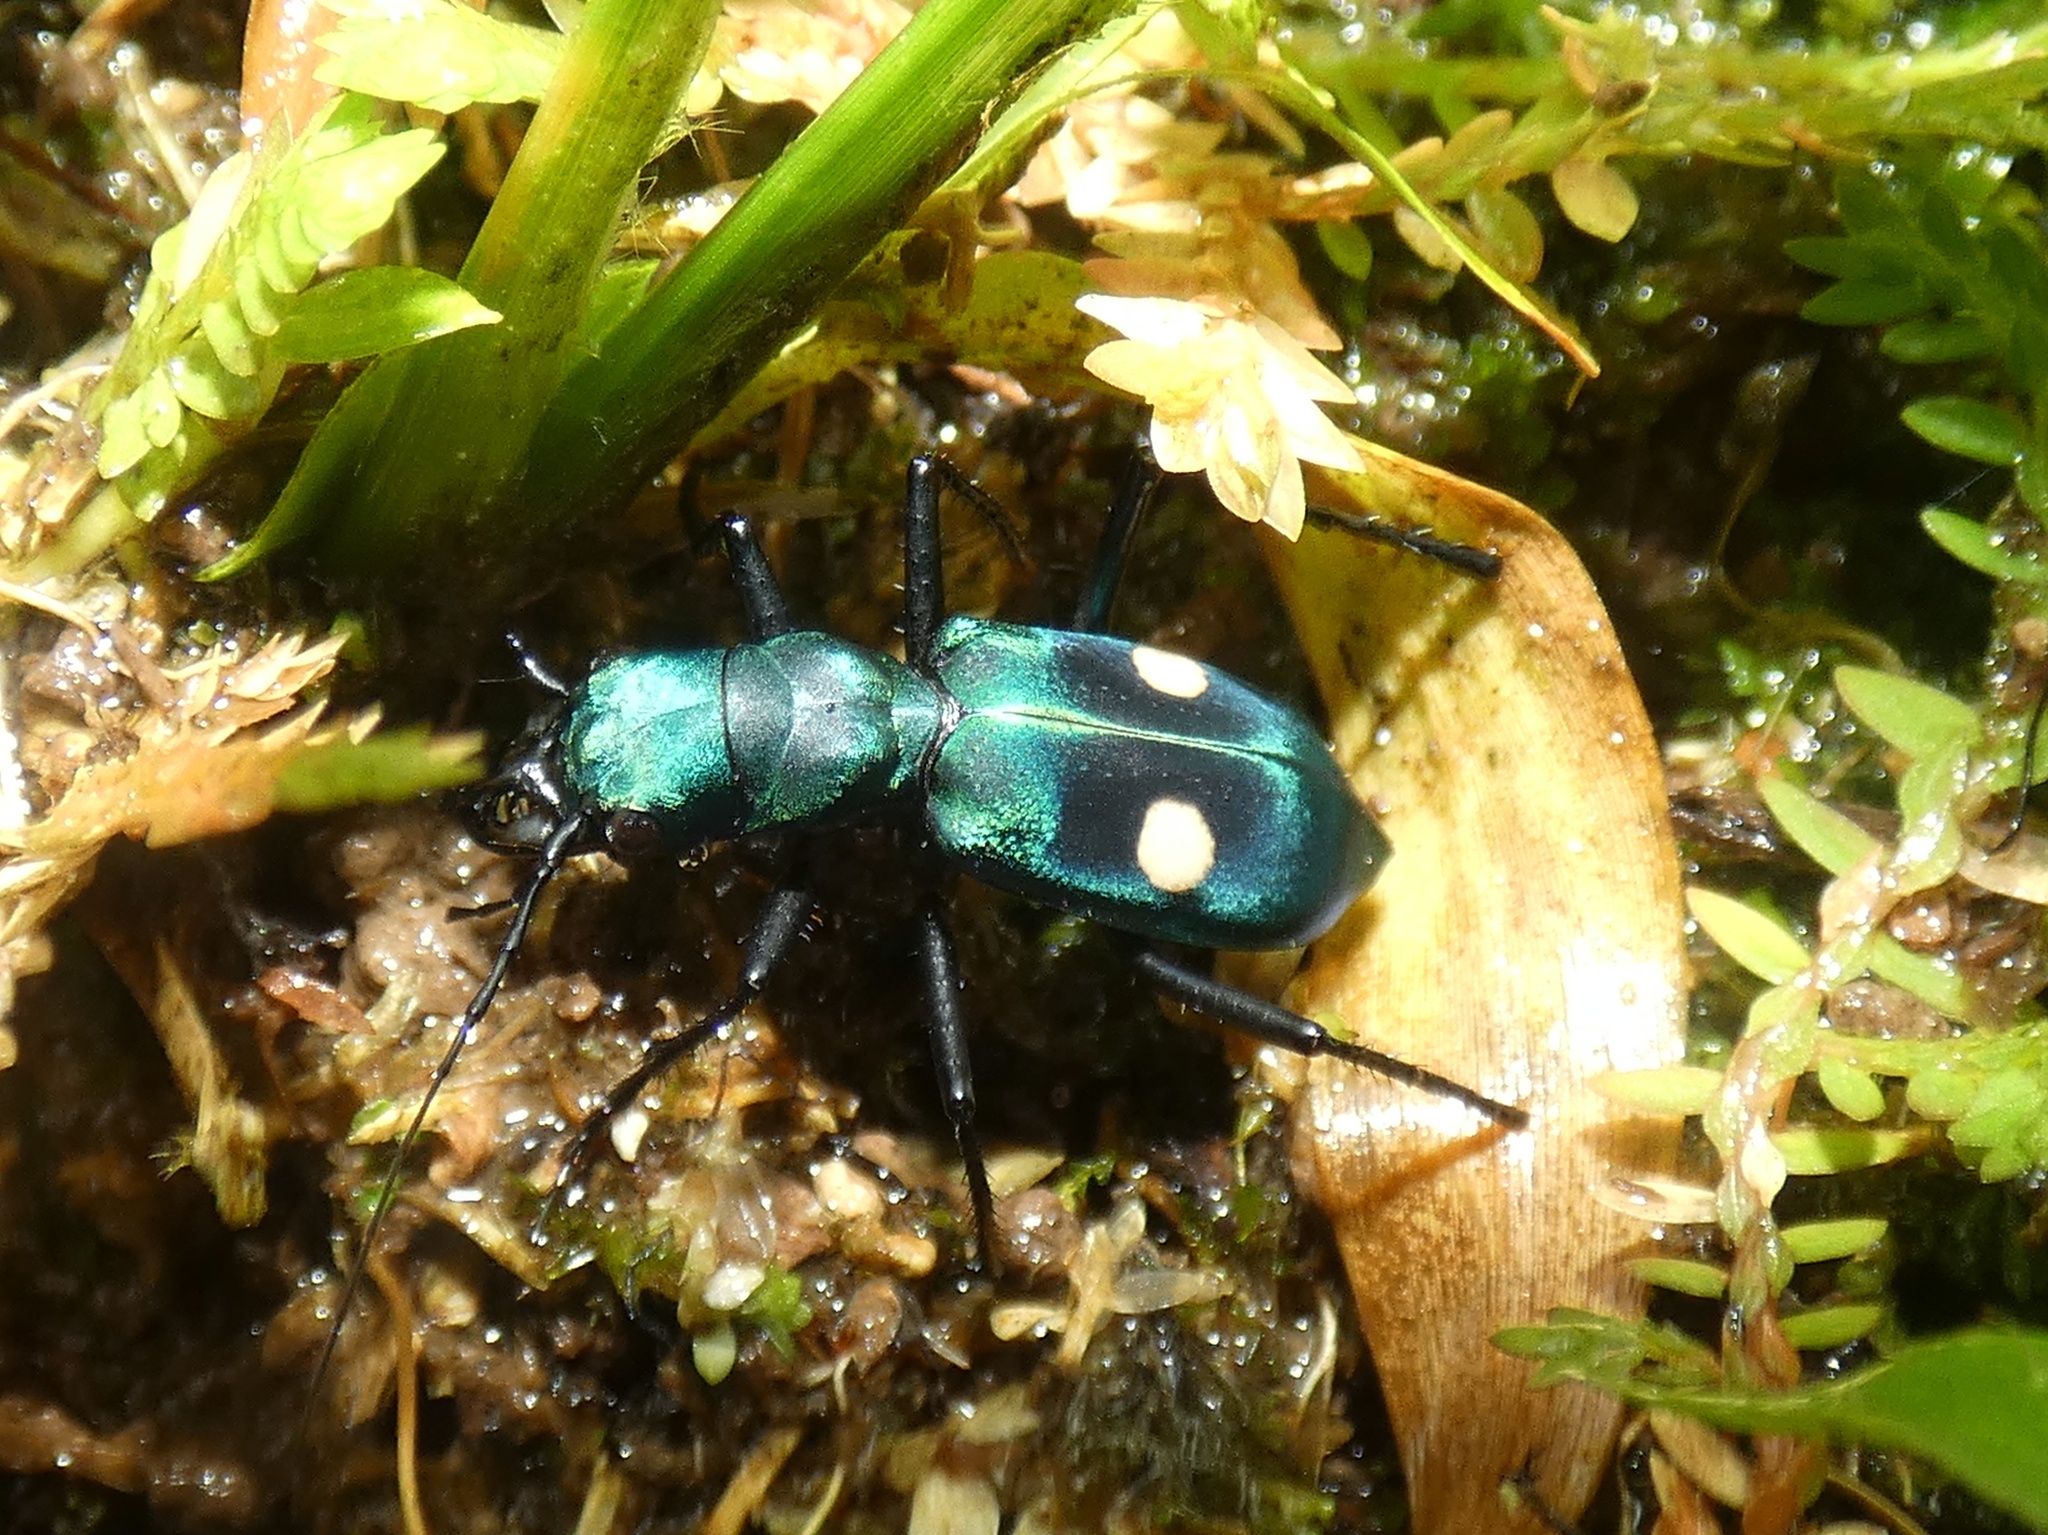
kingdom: Animalia
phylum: Arthropoda
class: Insecta
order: Coleoptera
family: Carabidae
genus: Pseudoxycheila
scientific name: Pseudoxycheila tarsalis
